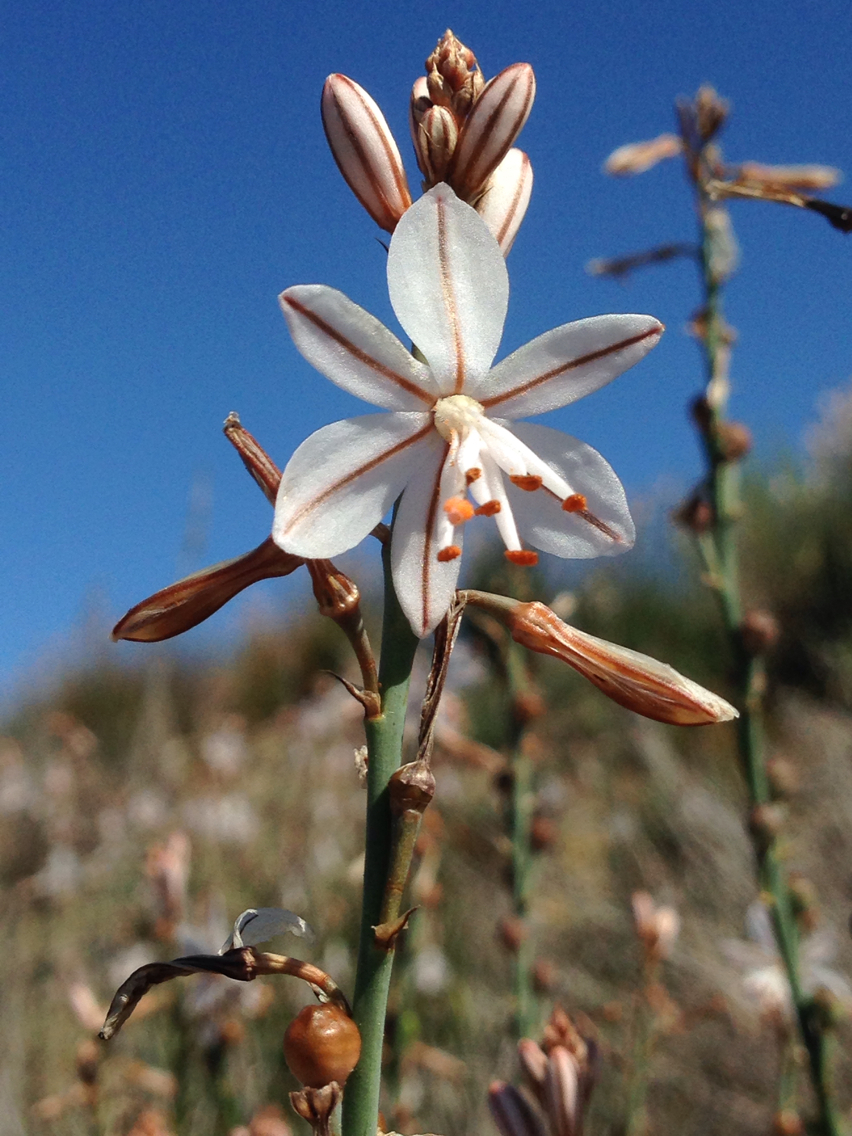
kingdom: Plantae
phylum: Tracheophyta
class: Liliopsida
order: Asparagales
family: Asphodelaceae
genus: Asphodelus
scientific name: Asphodelus fistulosus
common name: Onionweed
